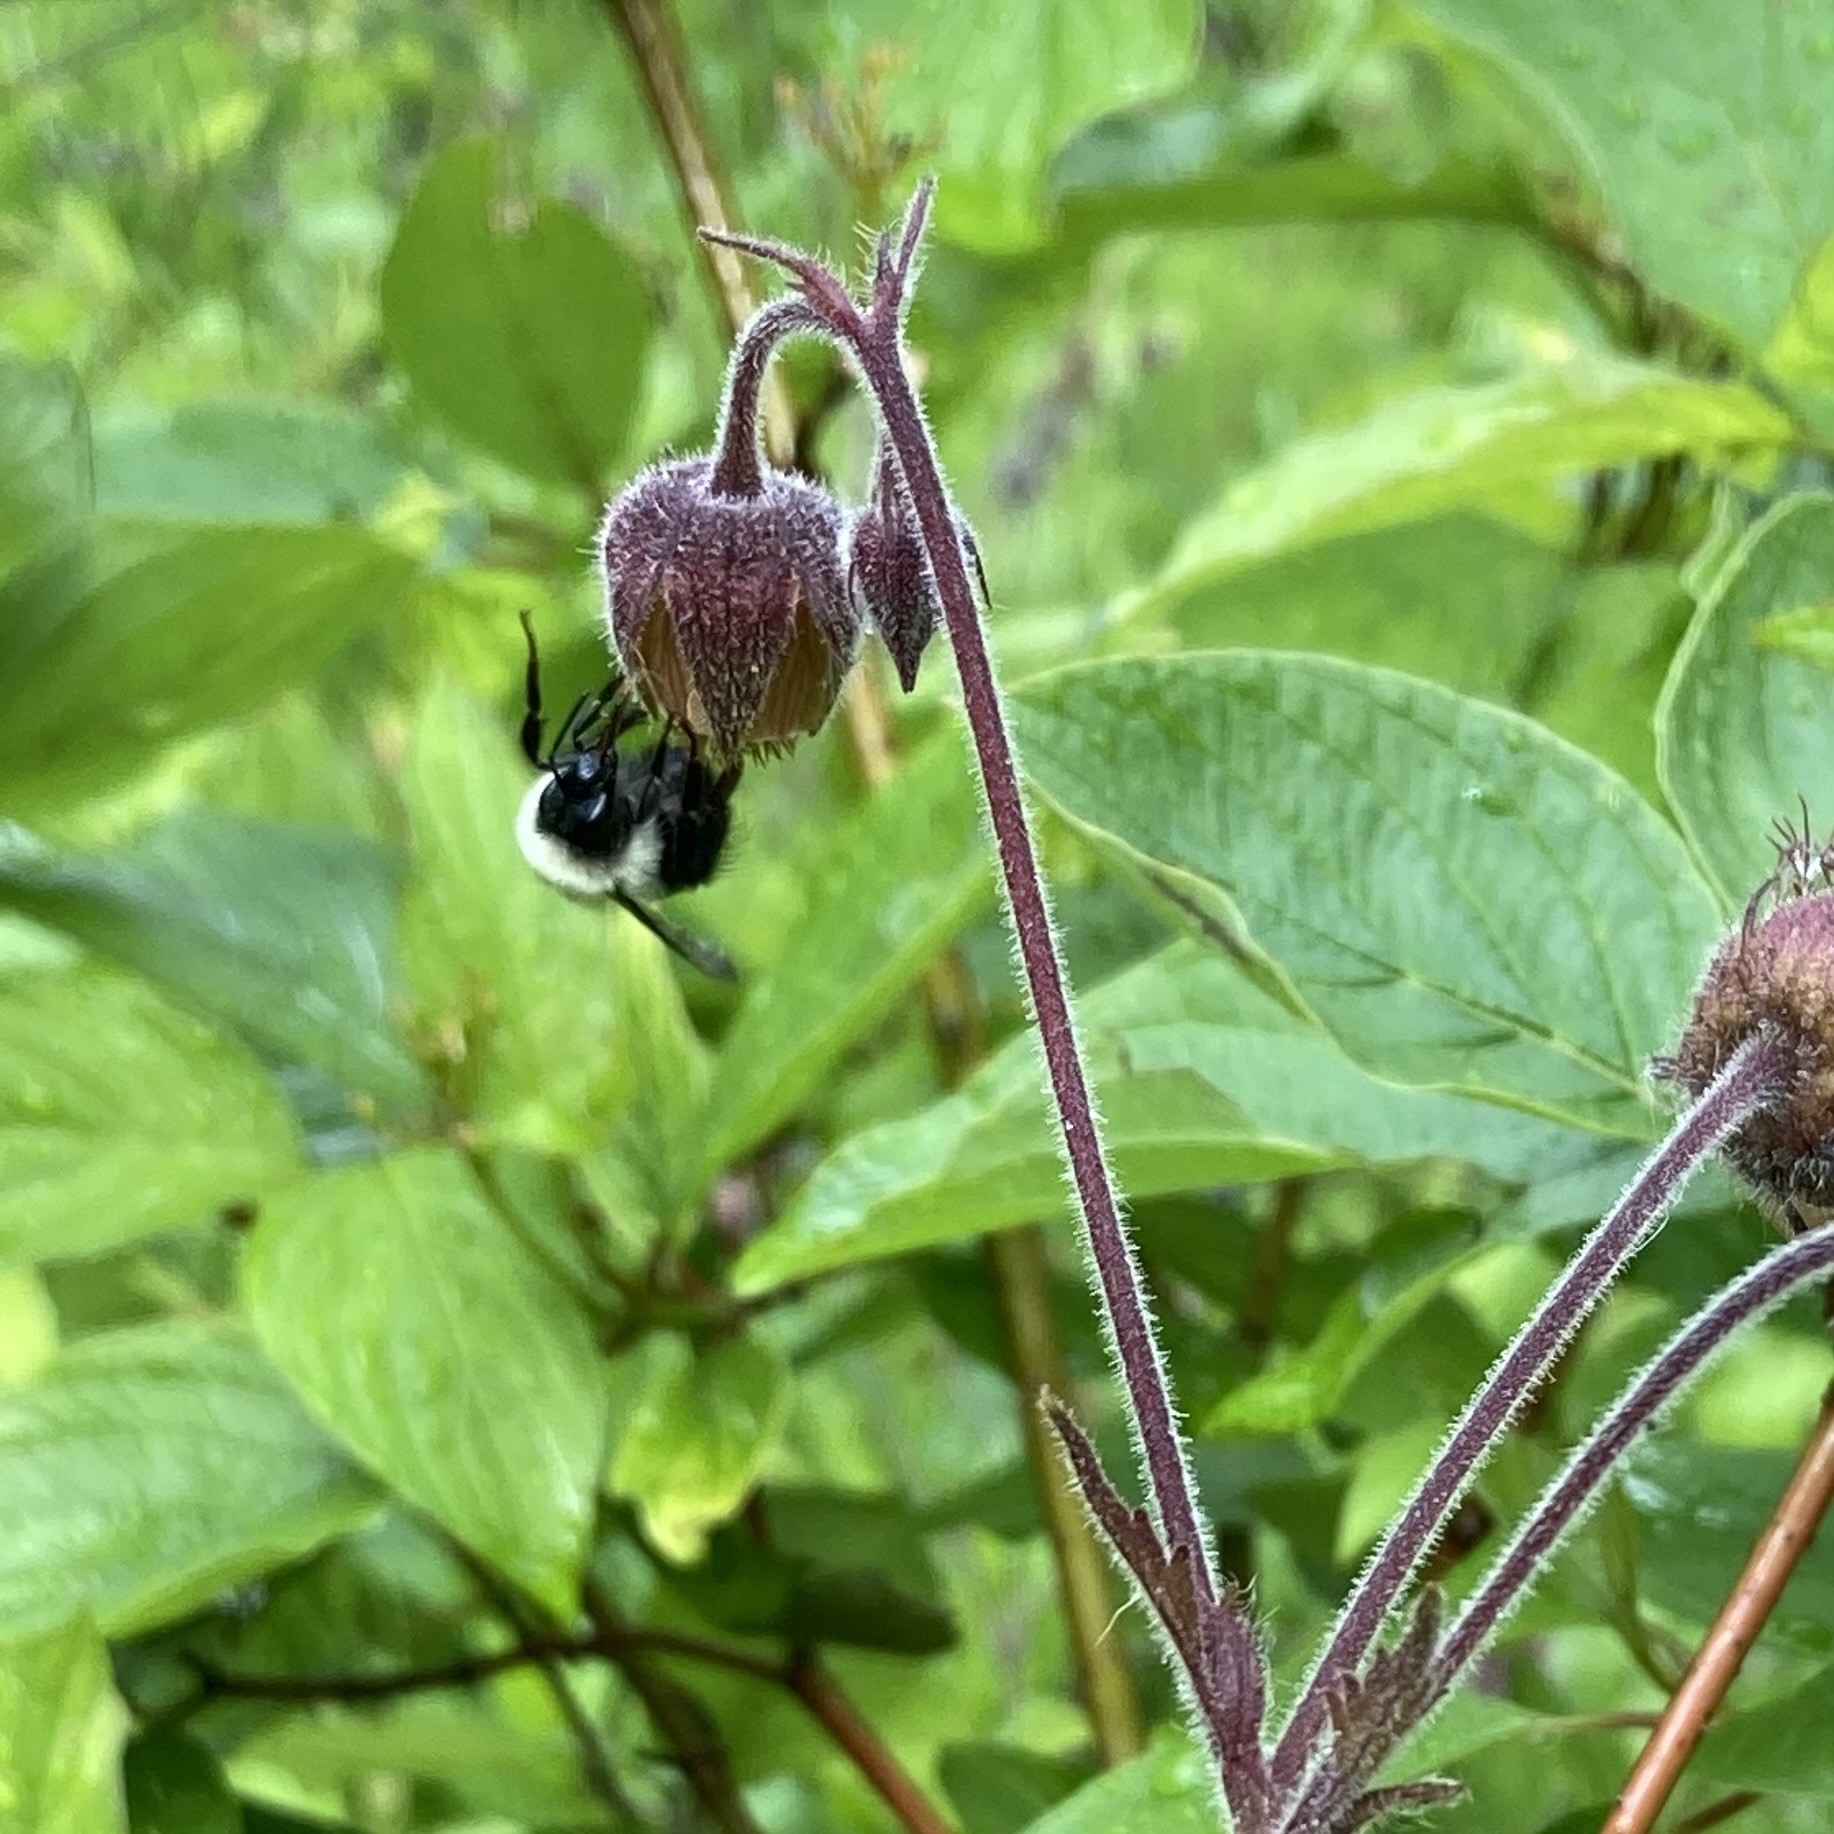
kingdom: Animalia
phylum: Arthropoda
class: Insecta
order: Hymenoptera
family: Apidae
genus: Bombus
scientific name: Bombus bimaculatus
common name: Two-spotted bumble bee
